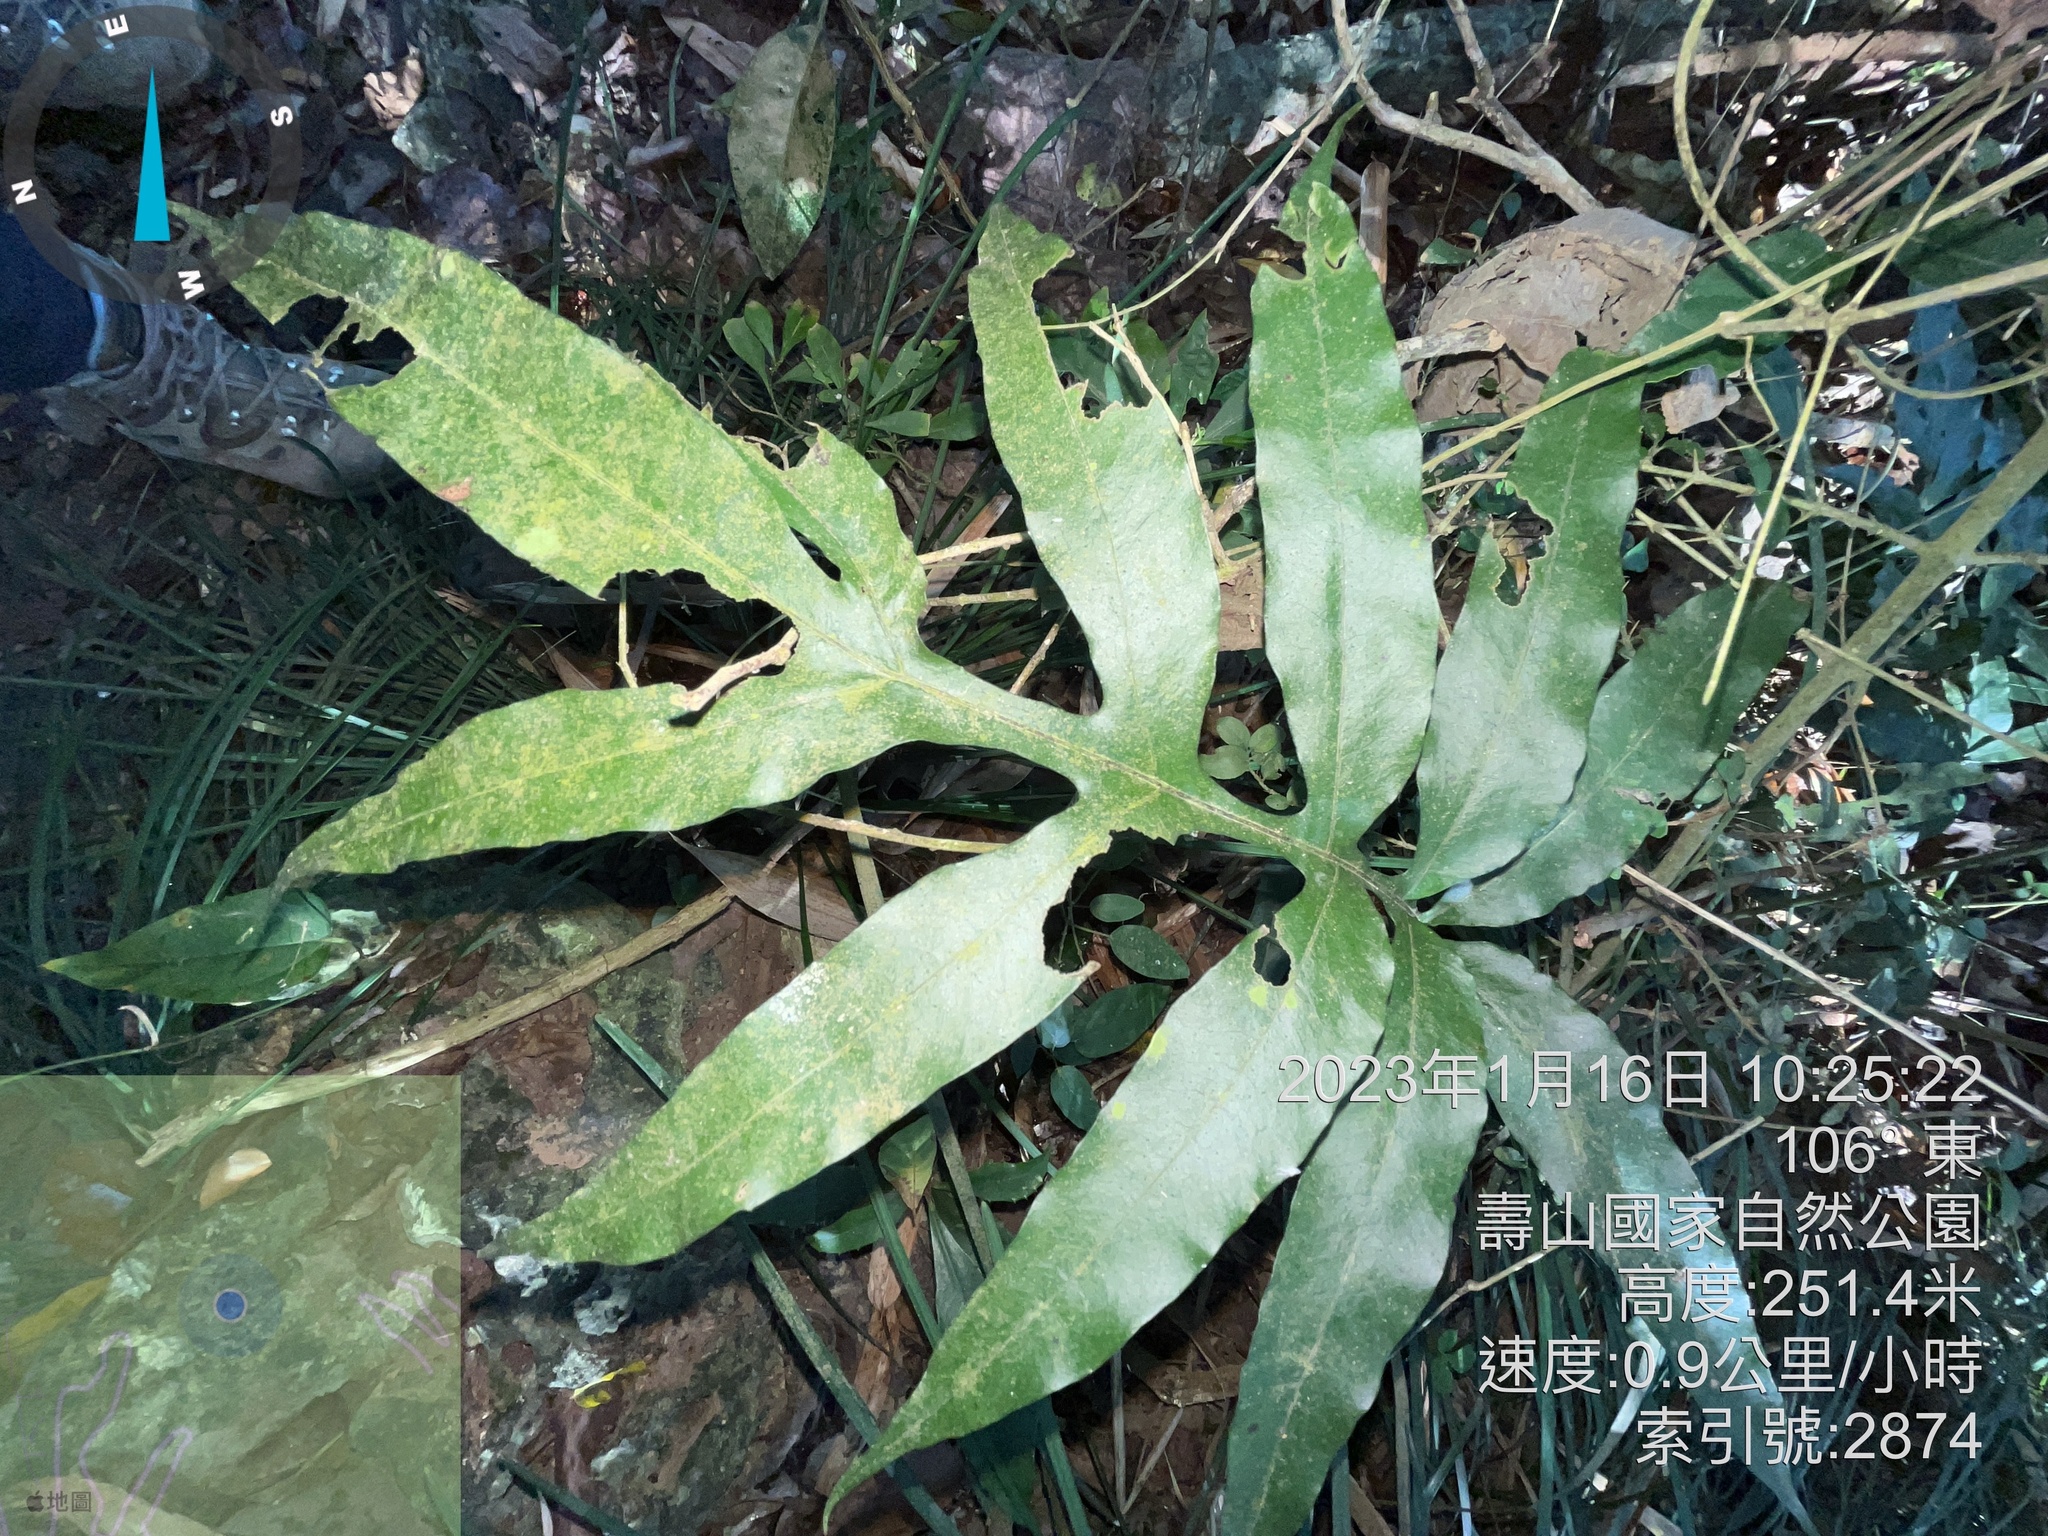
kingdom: Plantae
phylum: Tracheophyta
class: Polypodiopsida
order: Polypodiales
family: Polypodiaceae
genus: Leptochilus
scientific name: Leptochilus ellipticus
